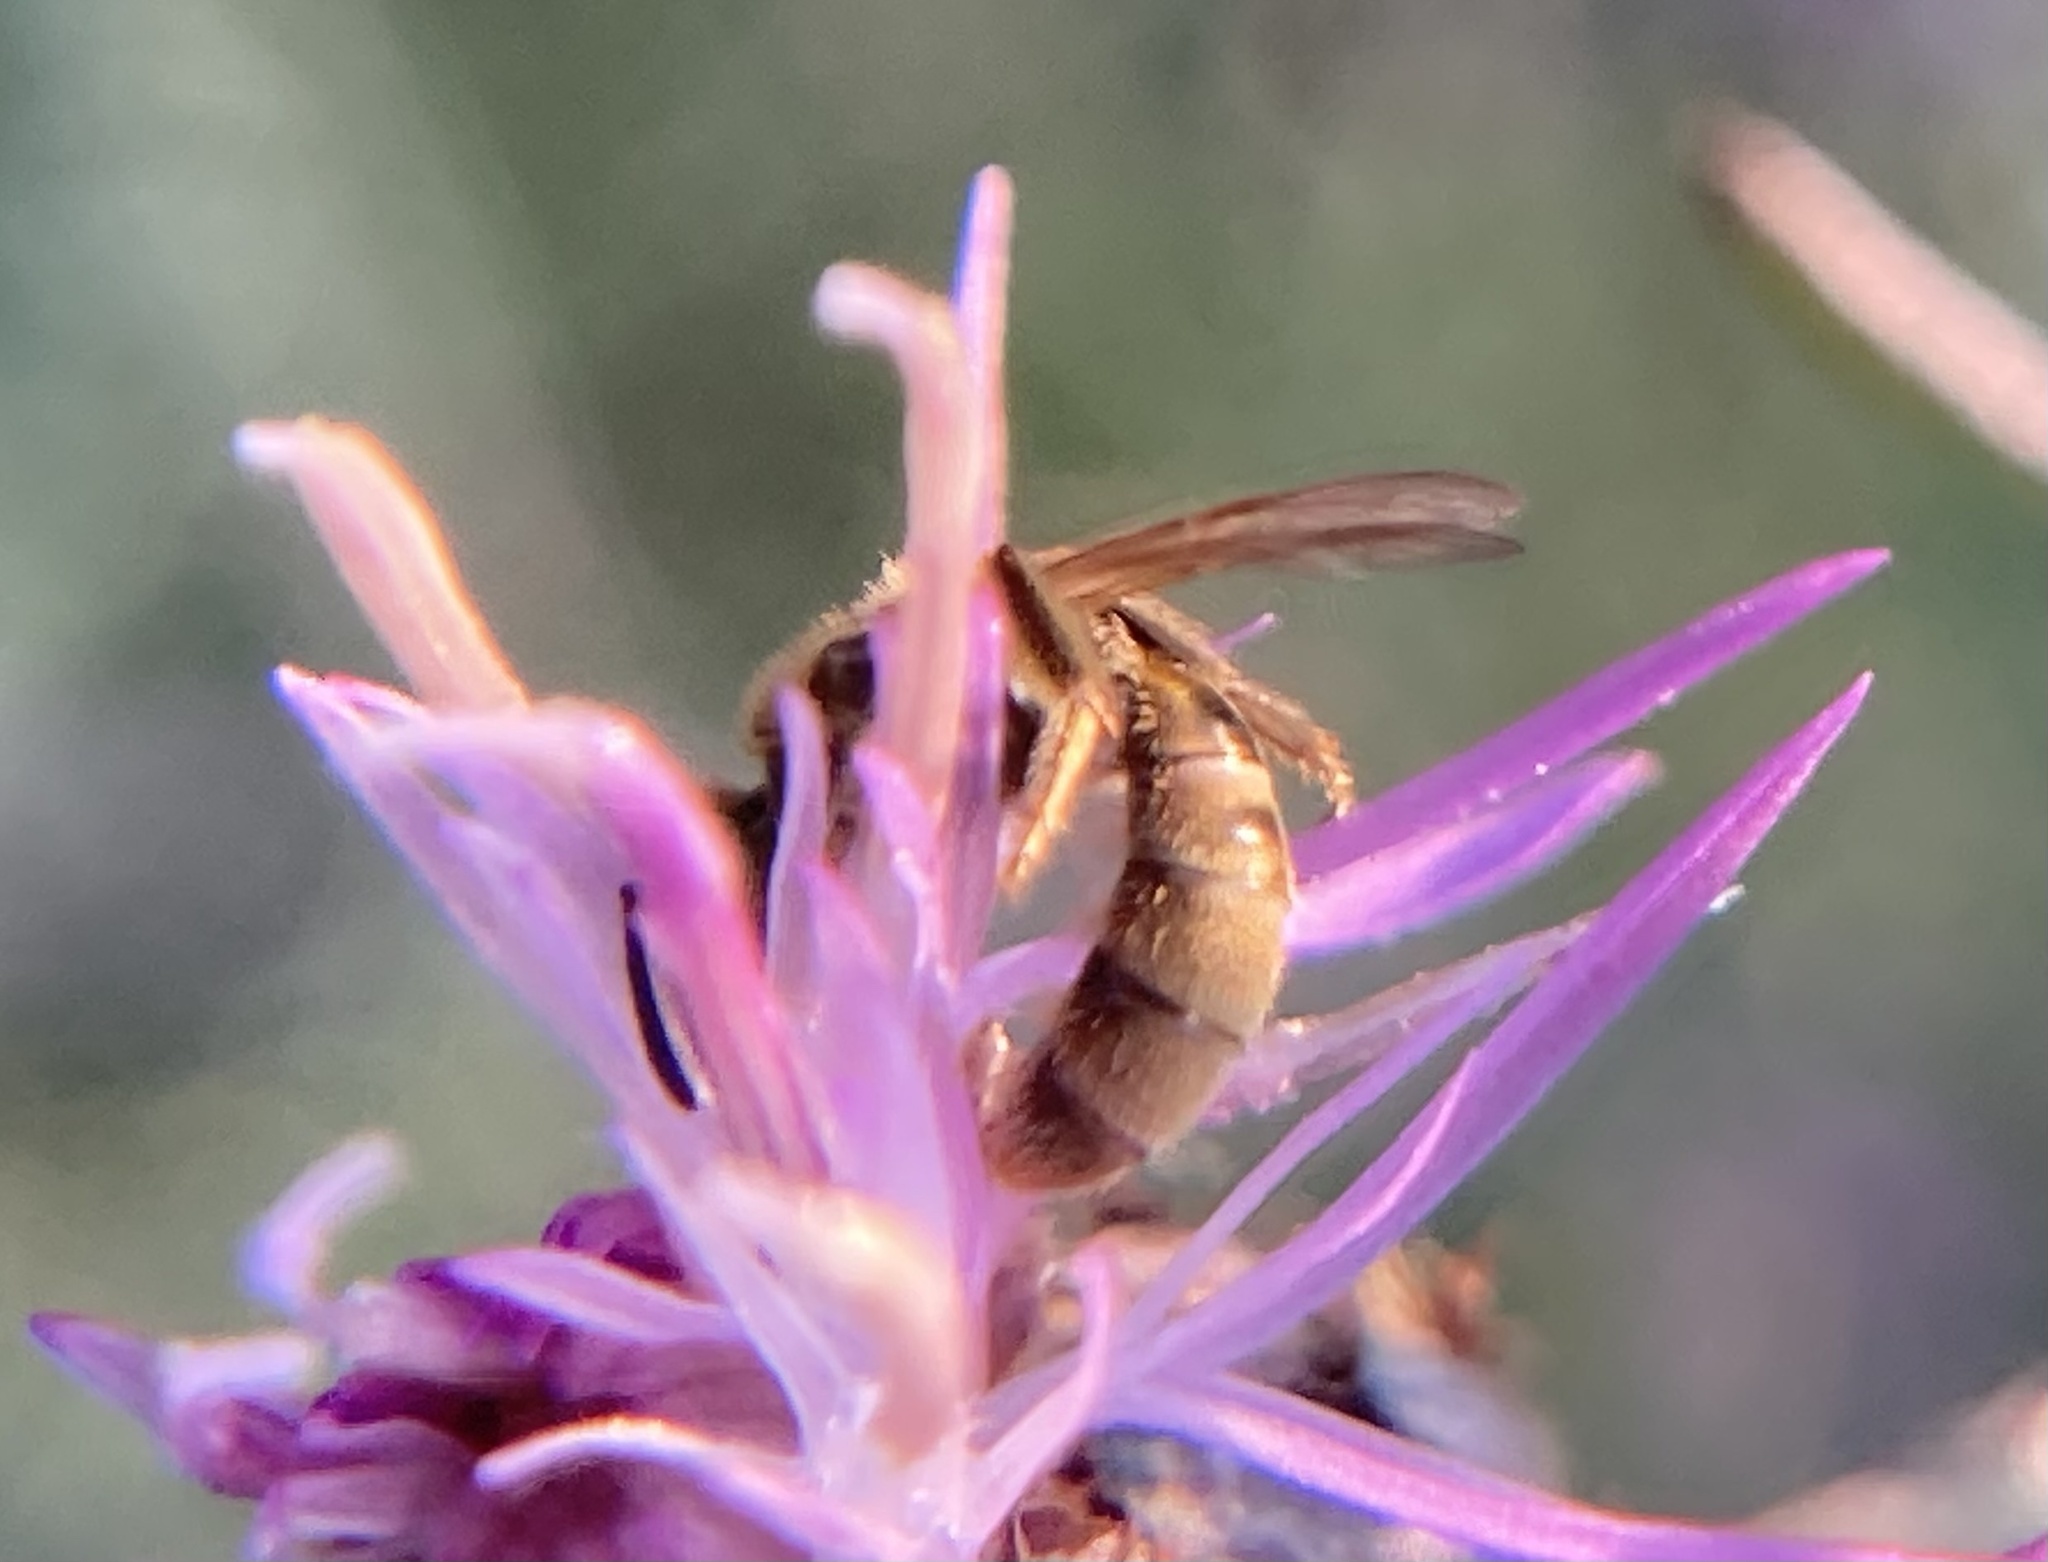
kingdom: Animalia
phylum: Arthropoda
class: Insecta
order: Hymenoptera
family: Halictidae
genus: Lasioglossum
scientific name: Lasioglossum
